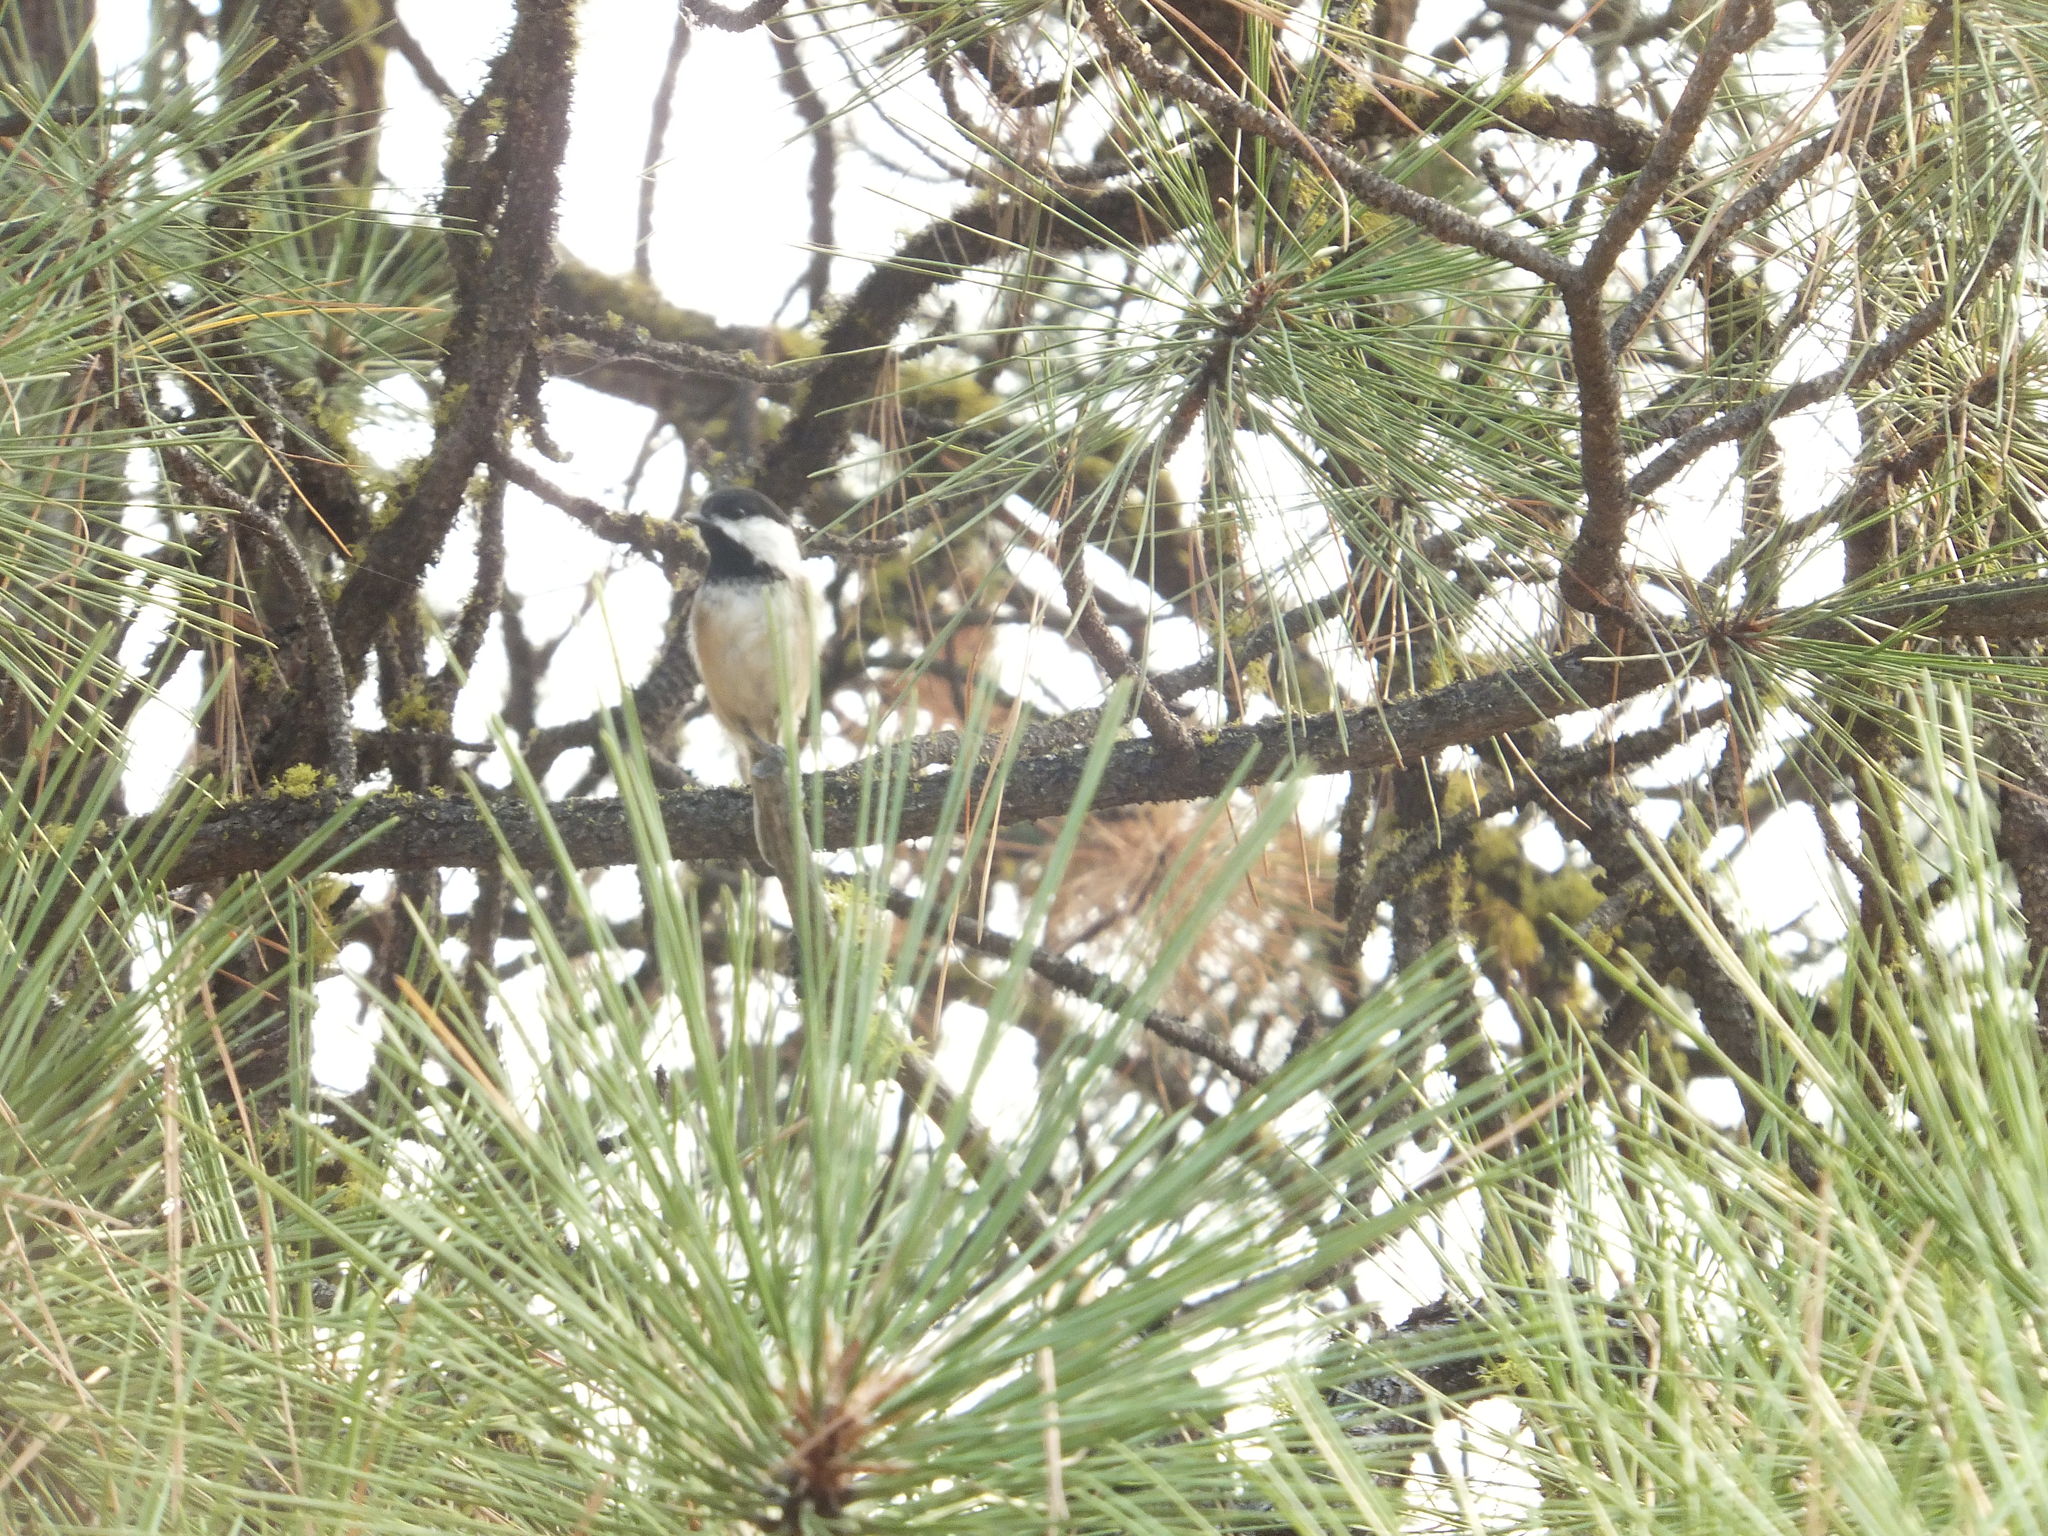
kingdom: Animalia
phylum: Chordata
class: Aves
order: Passeriformes
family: Paridae
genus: Poecile
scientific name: Poecile atricapillus
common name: Black-capped chickadee
